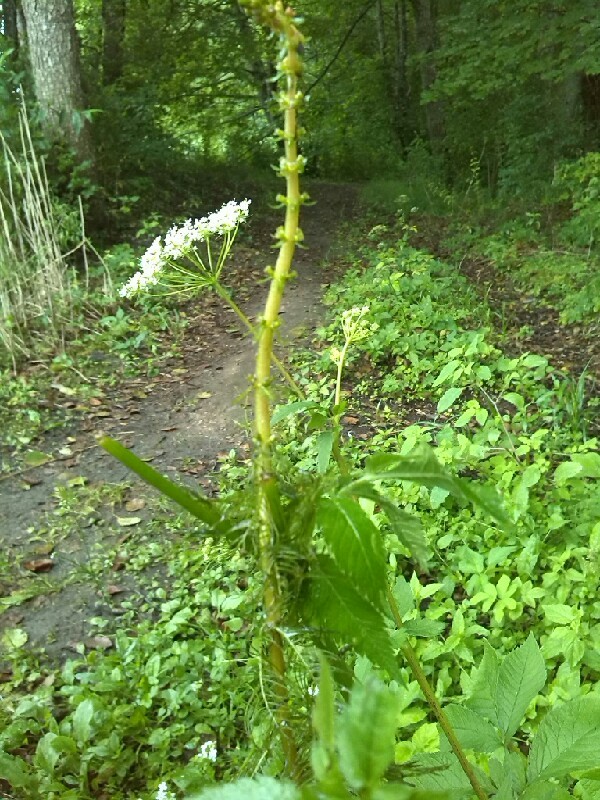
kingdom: Plantae
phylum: Tracheophyta
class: Magnoliopsida
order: Saxifragales
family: Haloragaceae
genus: Myriophyllum
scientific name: Myriophyllum verticillatum
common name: Whorled water-milfoil
